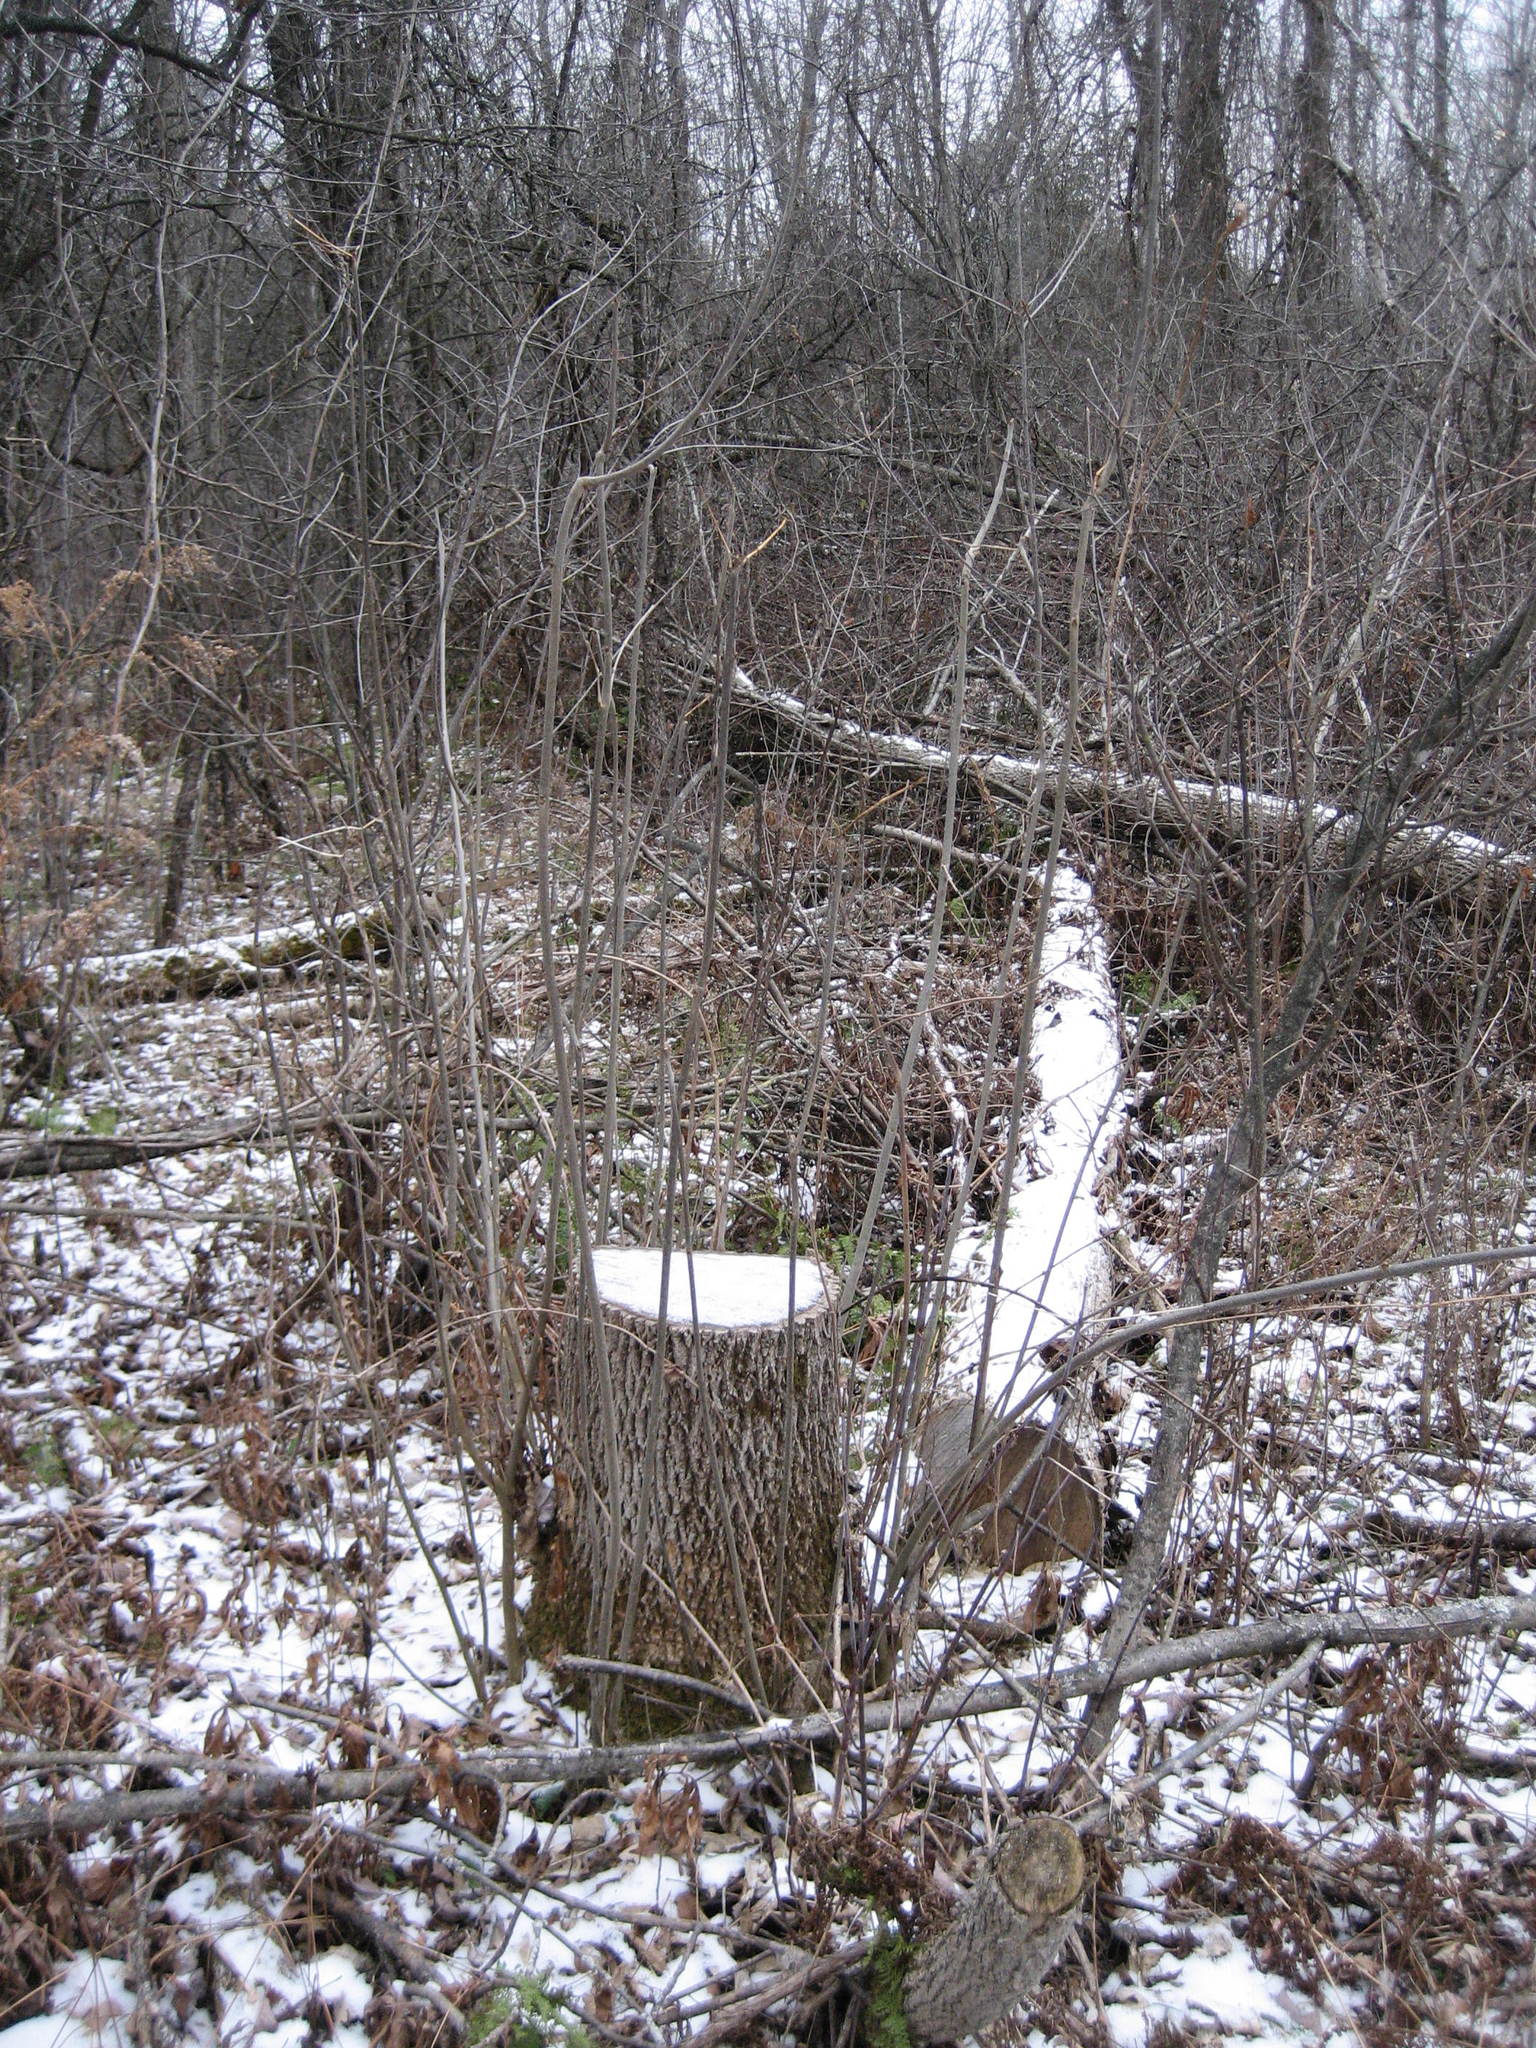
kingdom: Plantae
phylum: Tracheophyta
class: Magnoliopsida
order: Lamiales
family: Oleaceae
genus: Fraxinus
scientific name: Fraxinus pennsylvanica
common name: Green ash
